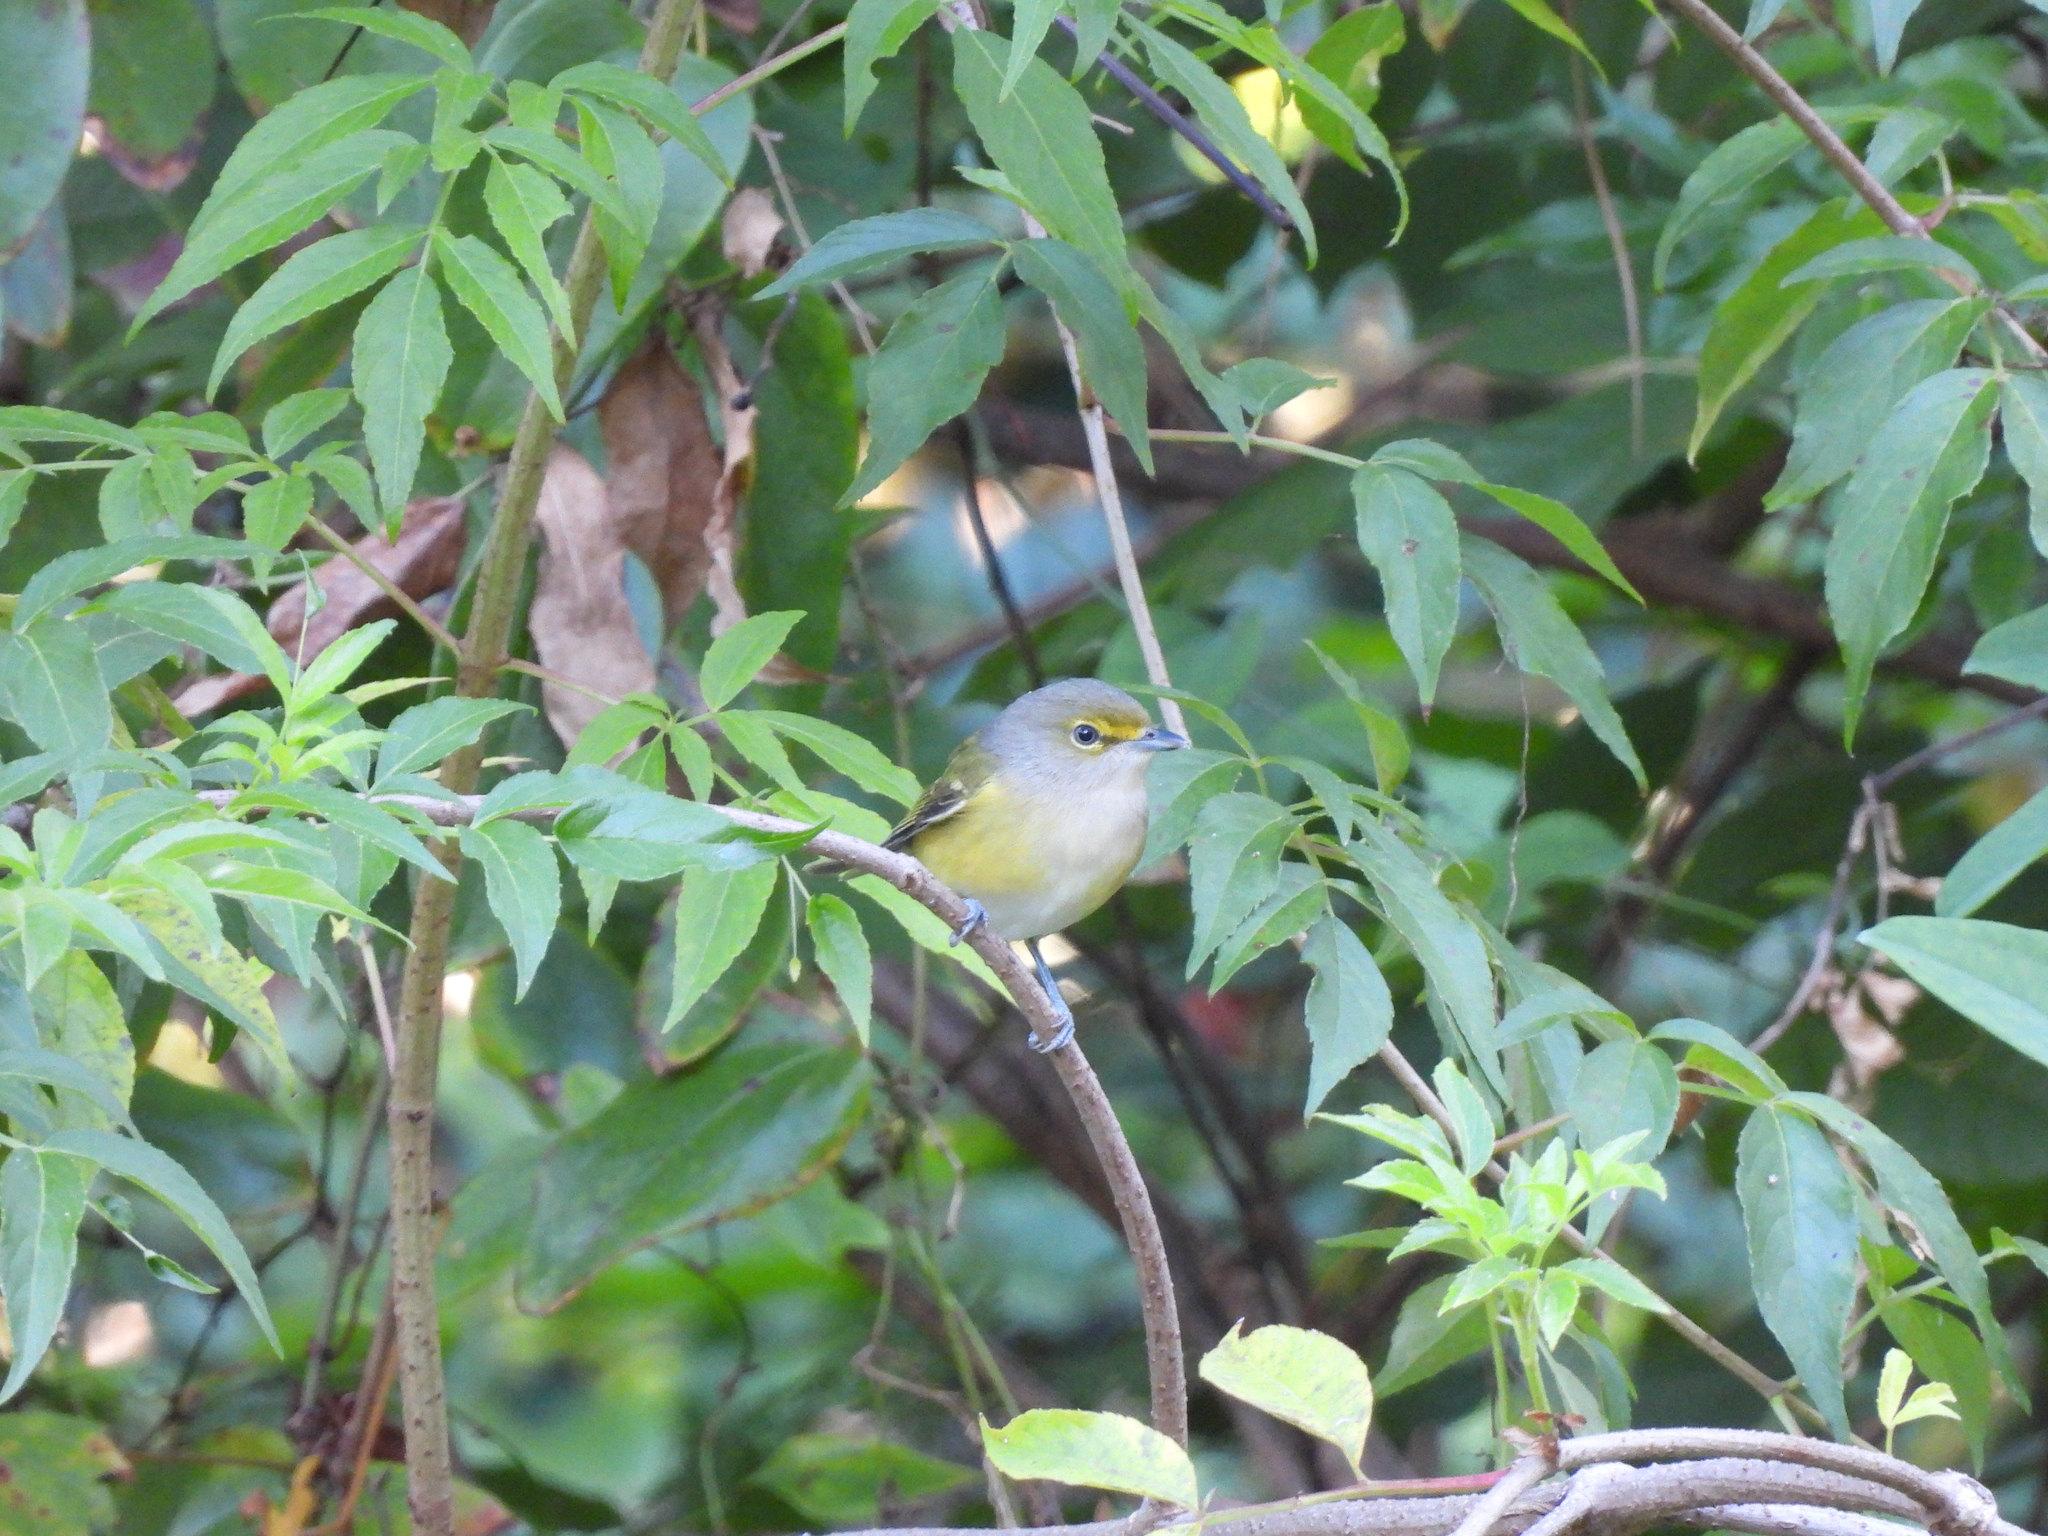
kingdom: Animalia
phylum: Chordata
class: Aves
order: Passeriformes
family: Vireonidae
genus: Vireo
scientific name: Vireo griseus
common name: White-eyed vireo
